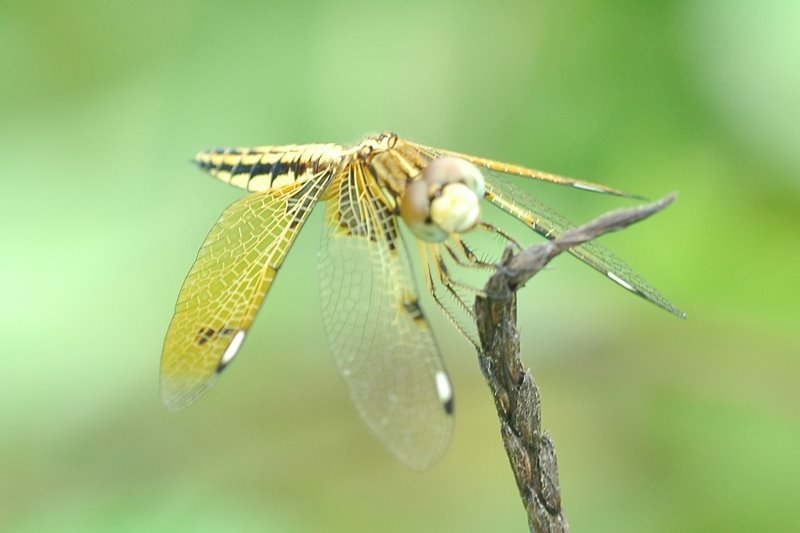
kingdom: Animalia
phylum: Arthropoda
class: Insecta
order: Odonata
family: Libellulidae
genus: Palpopleura
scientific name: Palpopleura sexmaculata
